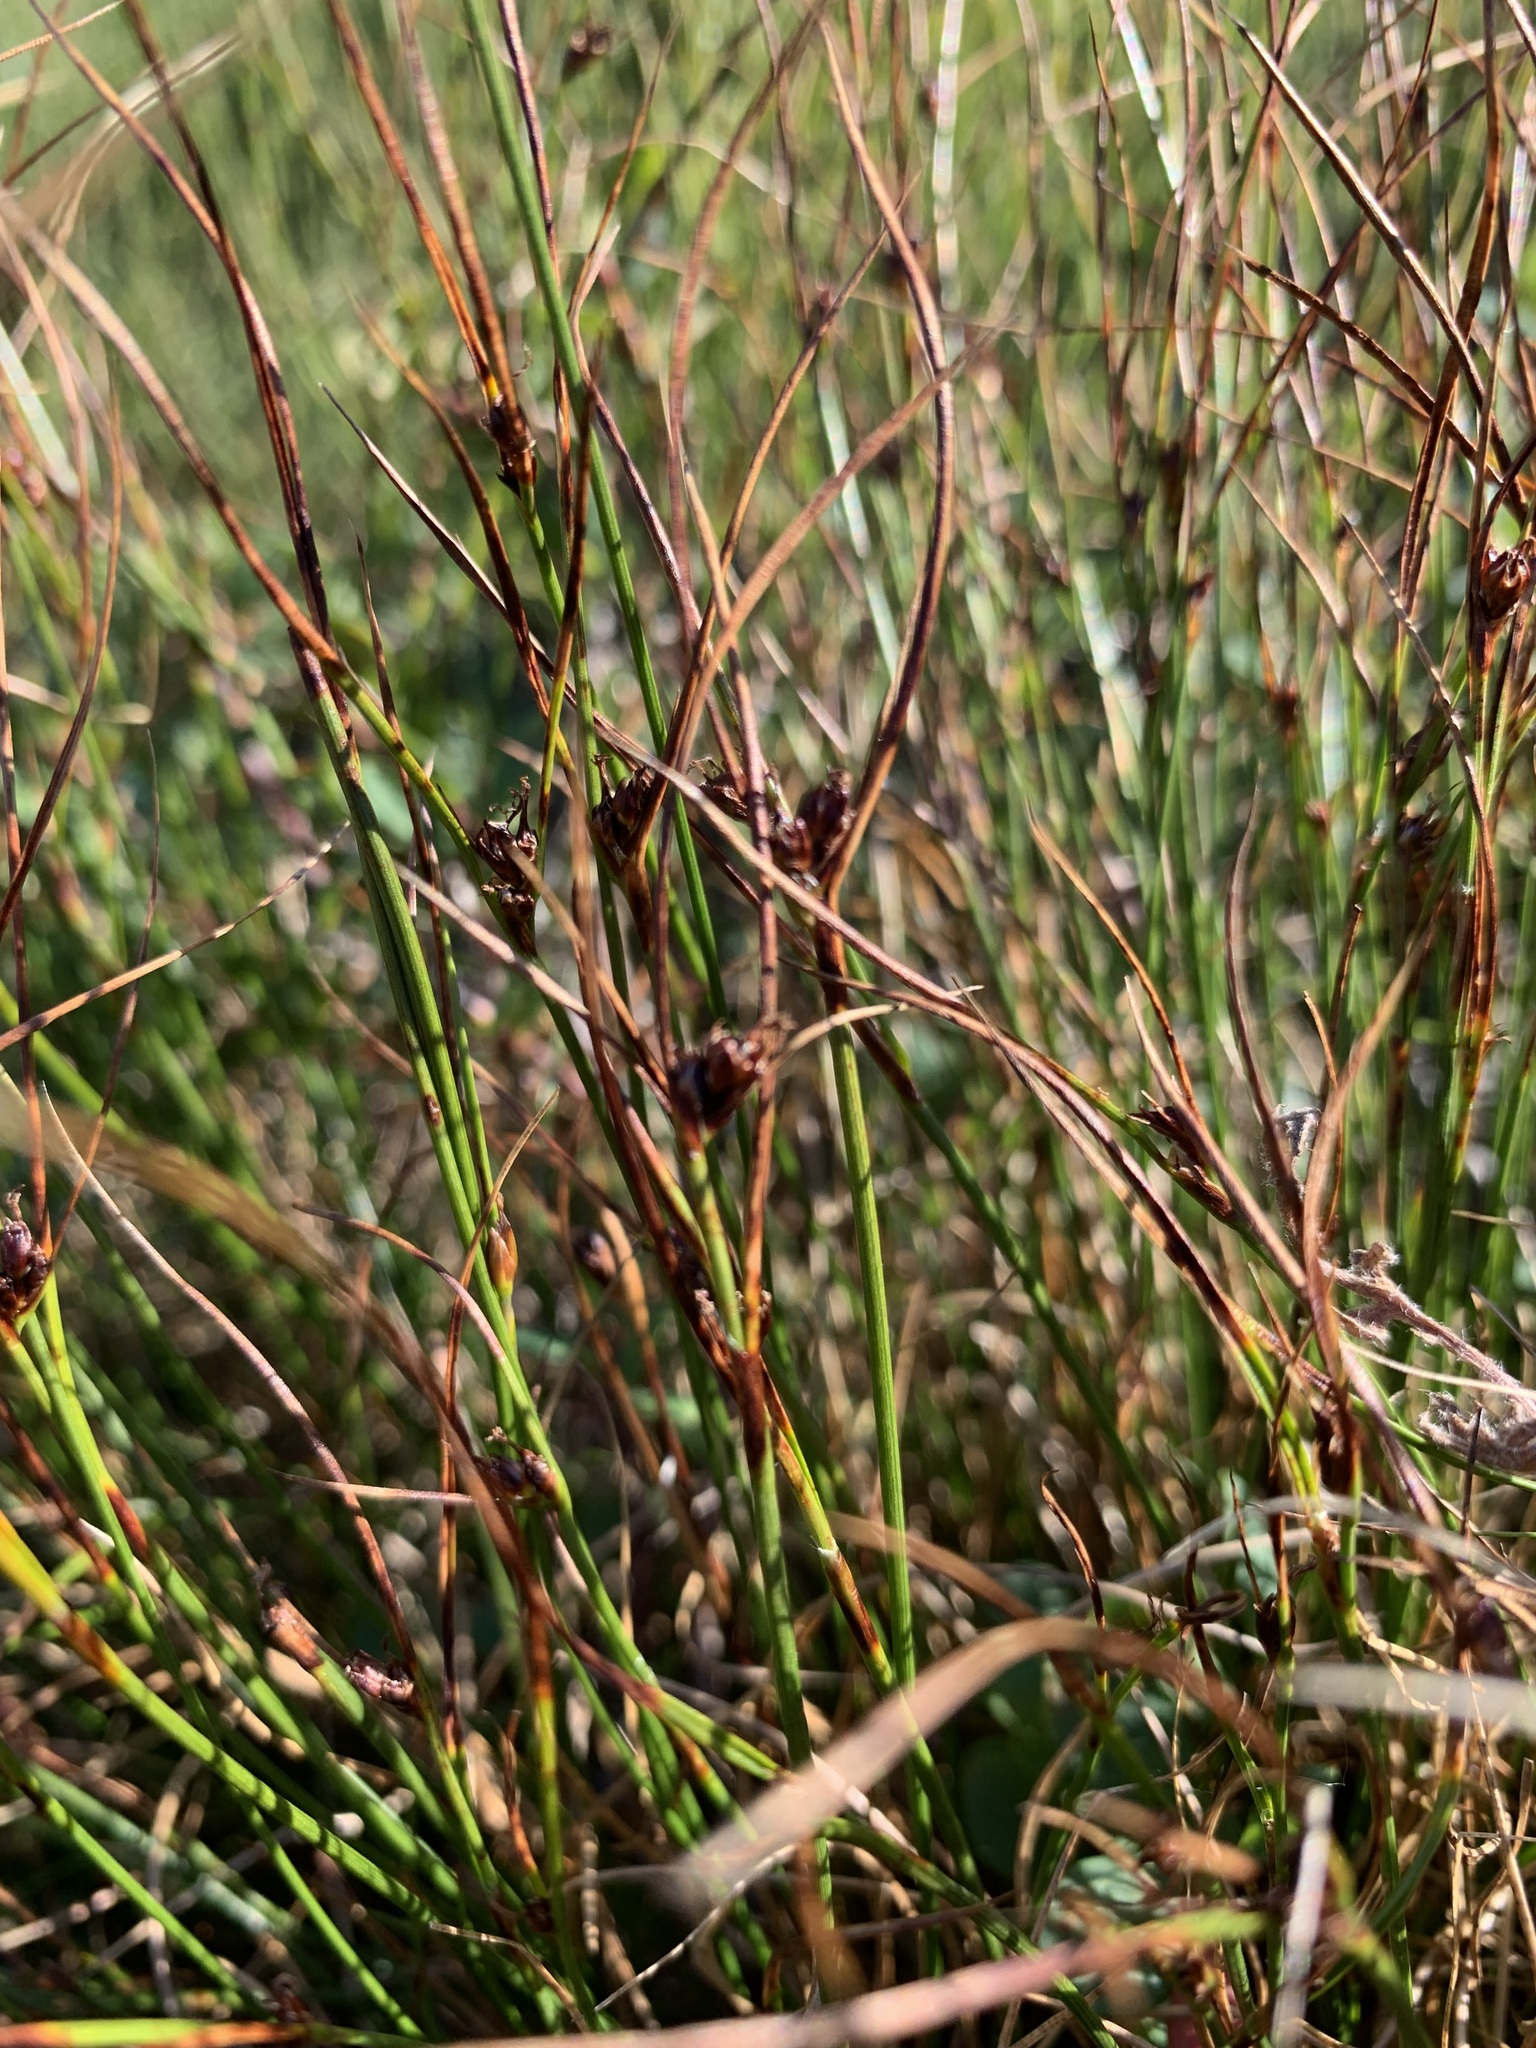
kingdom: Plantae
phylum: Tracheophyta
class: Liliopsida
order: Poales
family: Juncaceae
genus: Oreojuncus
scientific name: Oreojuncus trifidus
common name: Highland rush
